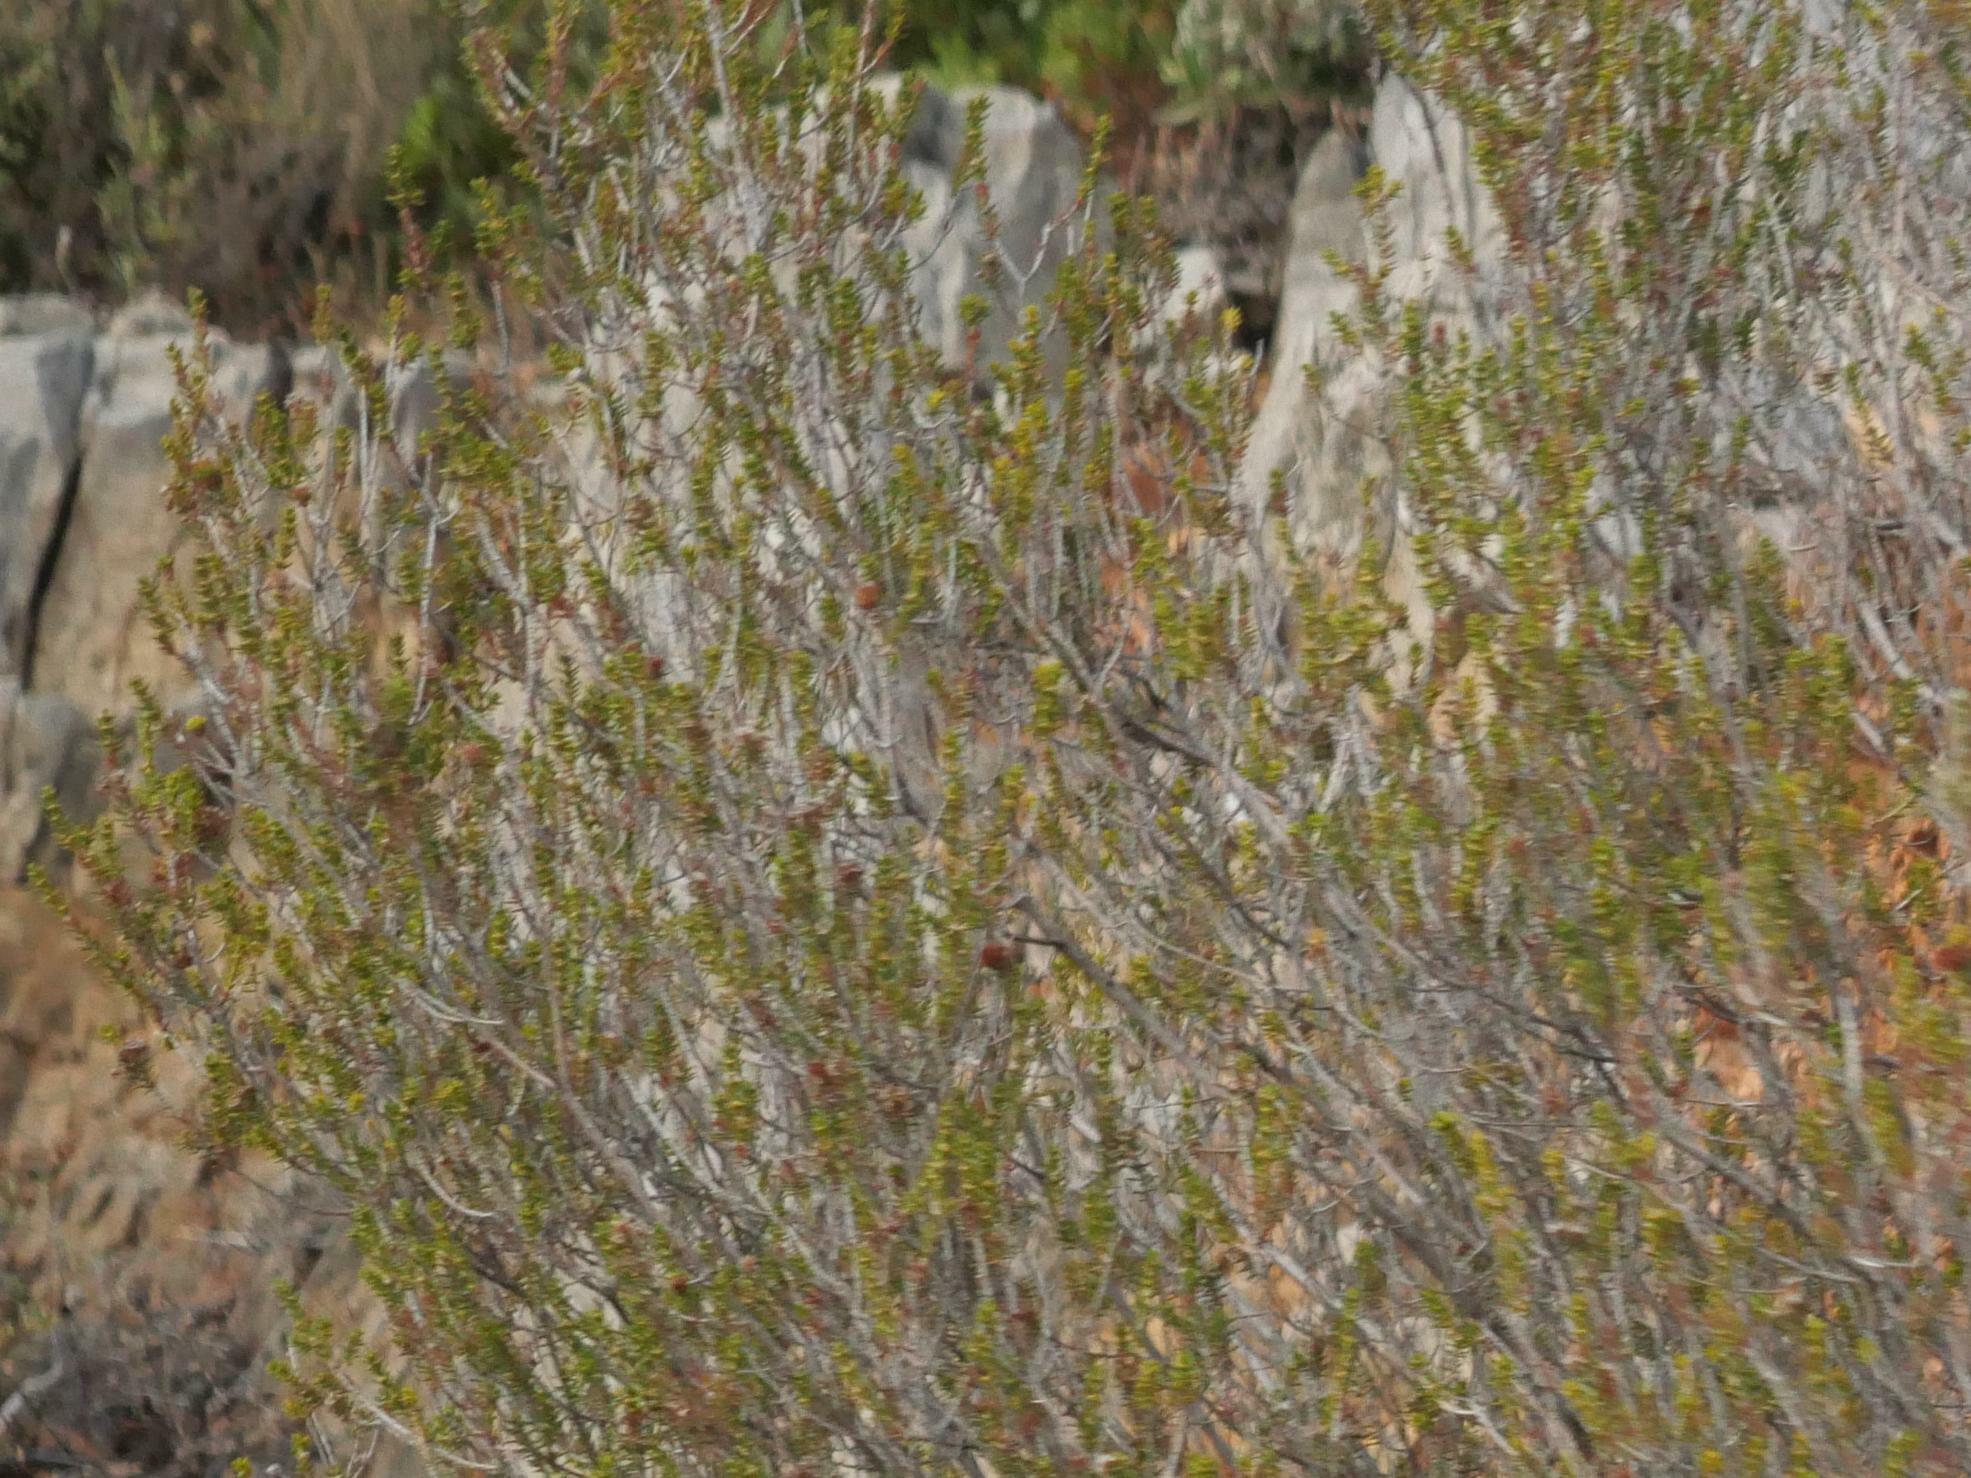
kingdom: Plantae
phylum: Tracheophyta
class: Magnoliopsida
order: Ericales
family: Ericaceae
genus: Erica
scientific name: Erica manipuliflora
